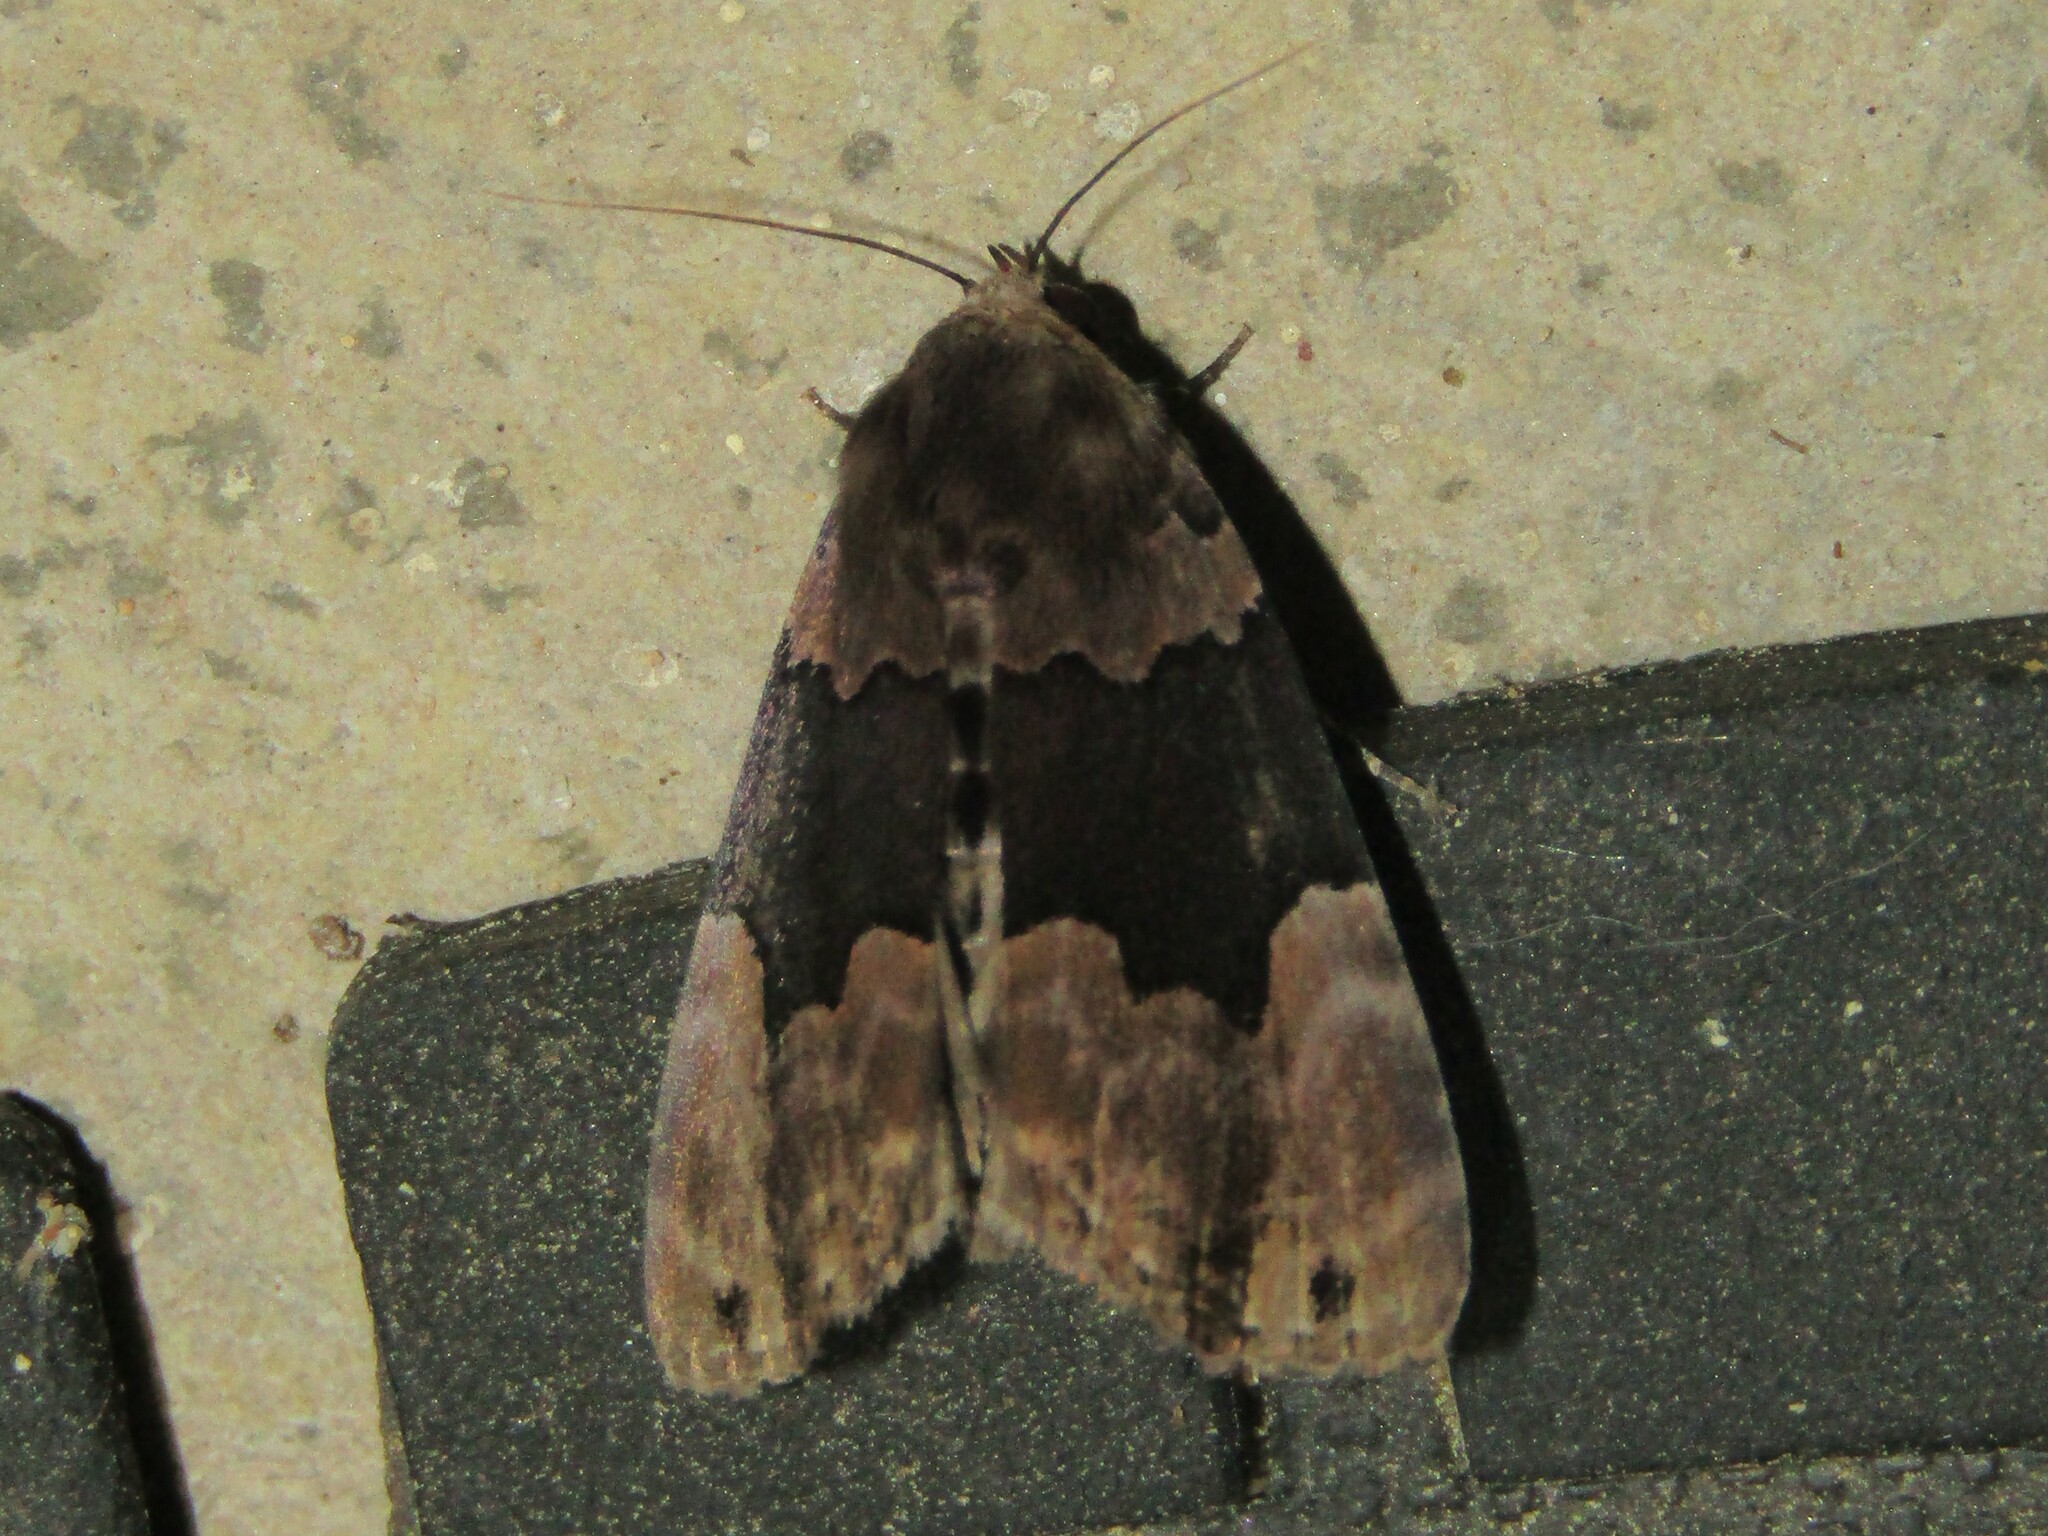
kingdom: Animalia
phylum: Arthropoda
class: Insecta
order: Lepidoptera
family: Erebidae
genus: Dinumma
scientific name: Dinumma deponens
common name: Purplish moth
